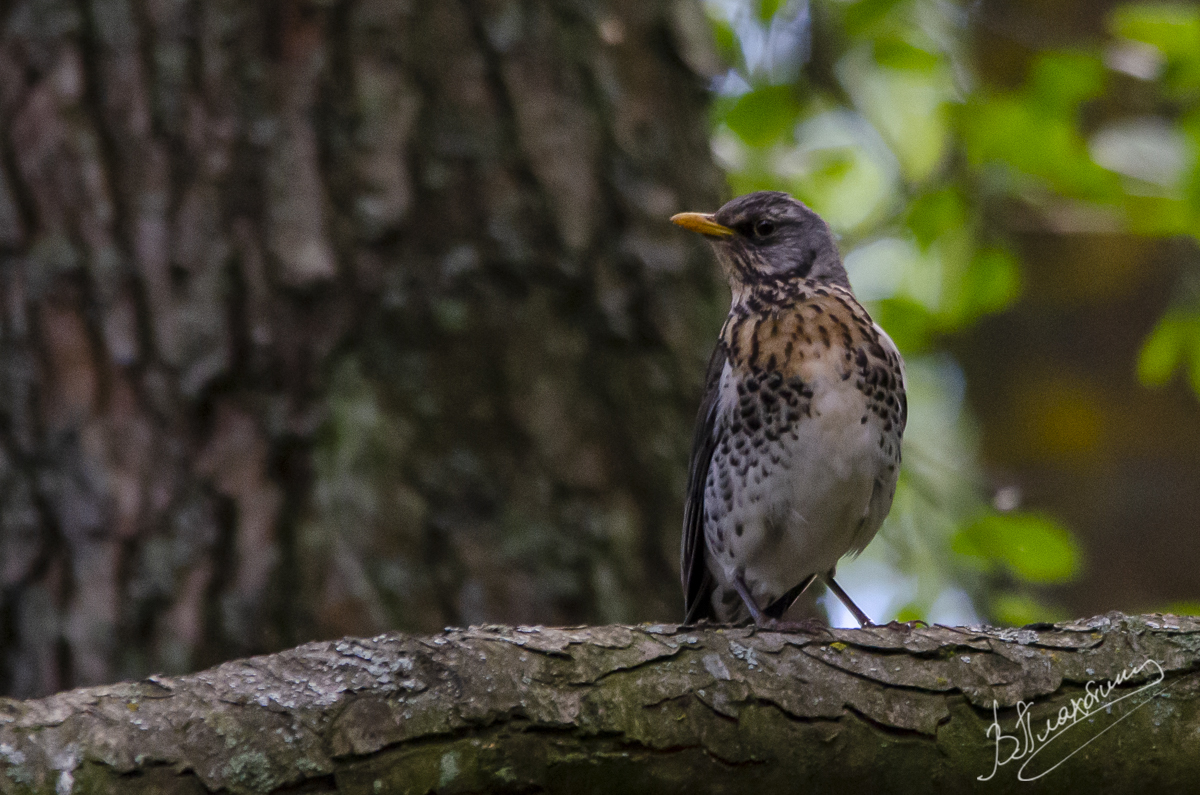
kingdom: Animalia
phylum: Chordata
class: Aves
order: Passeriformes
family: Turdidae
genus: Turdus
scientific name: Turdus pilaris
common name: Fieldfare
